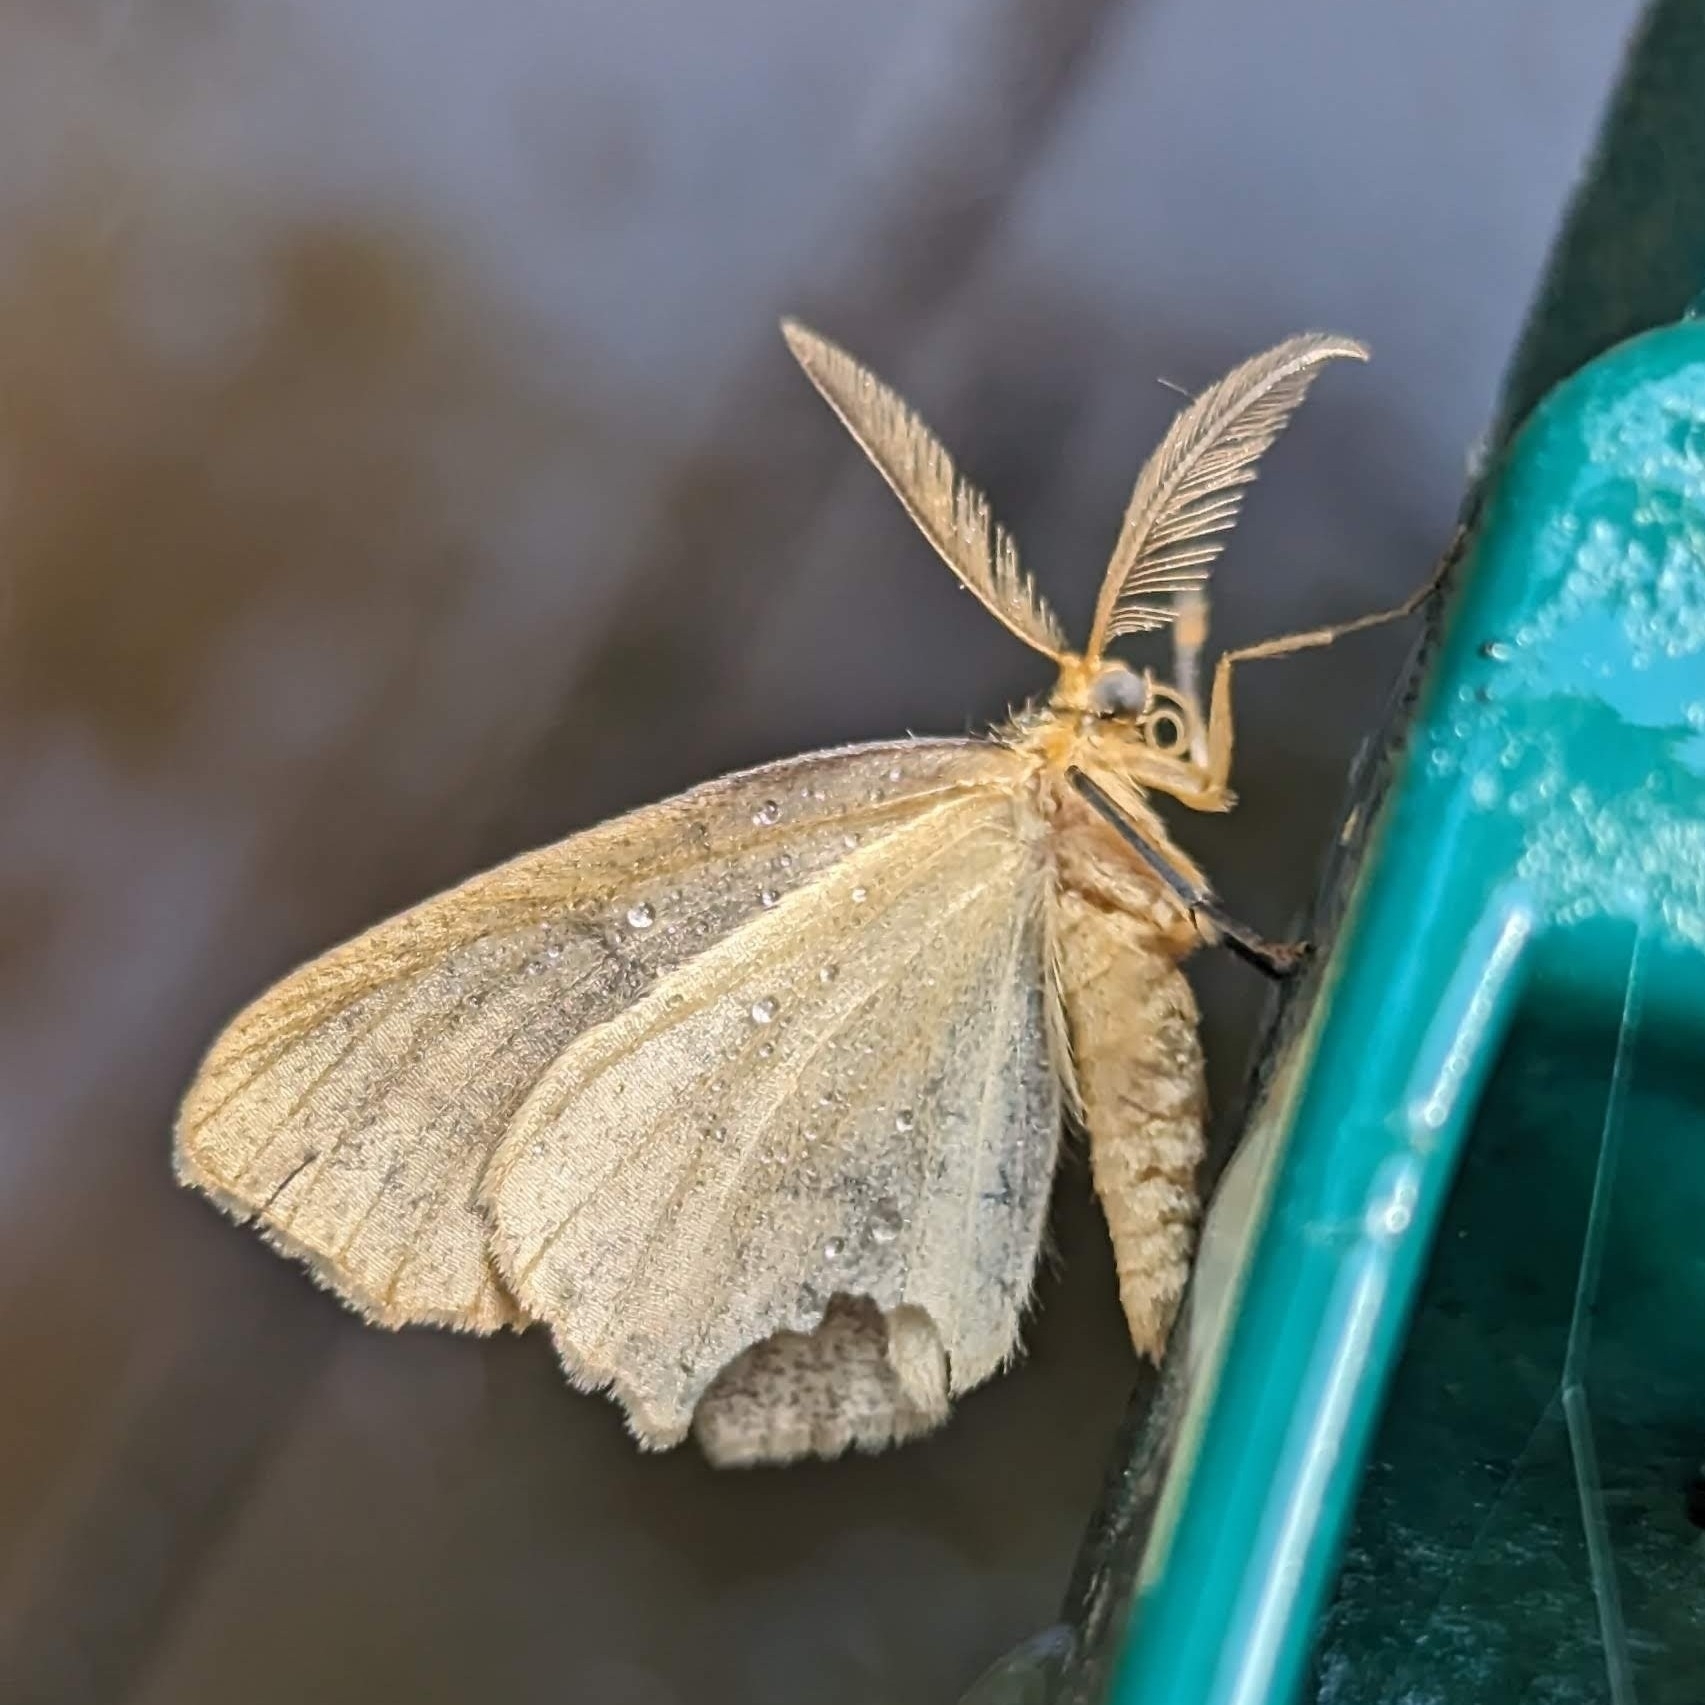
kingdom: Animalia
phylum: Arthropoda
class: Insecta
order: Lepidoptera
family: Geometridae
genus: Lambdina
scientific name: Lambdina fiscellaria
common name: Hemlock looper
